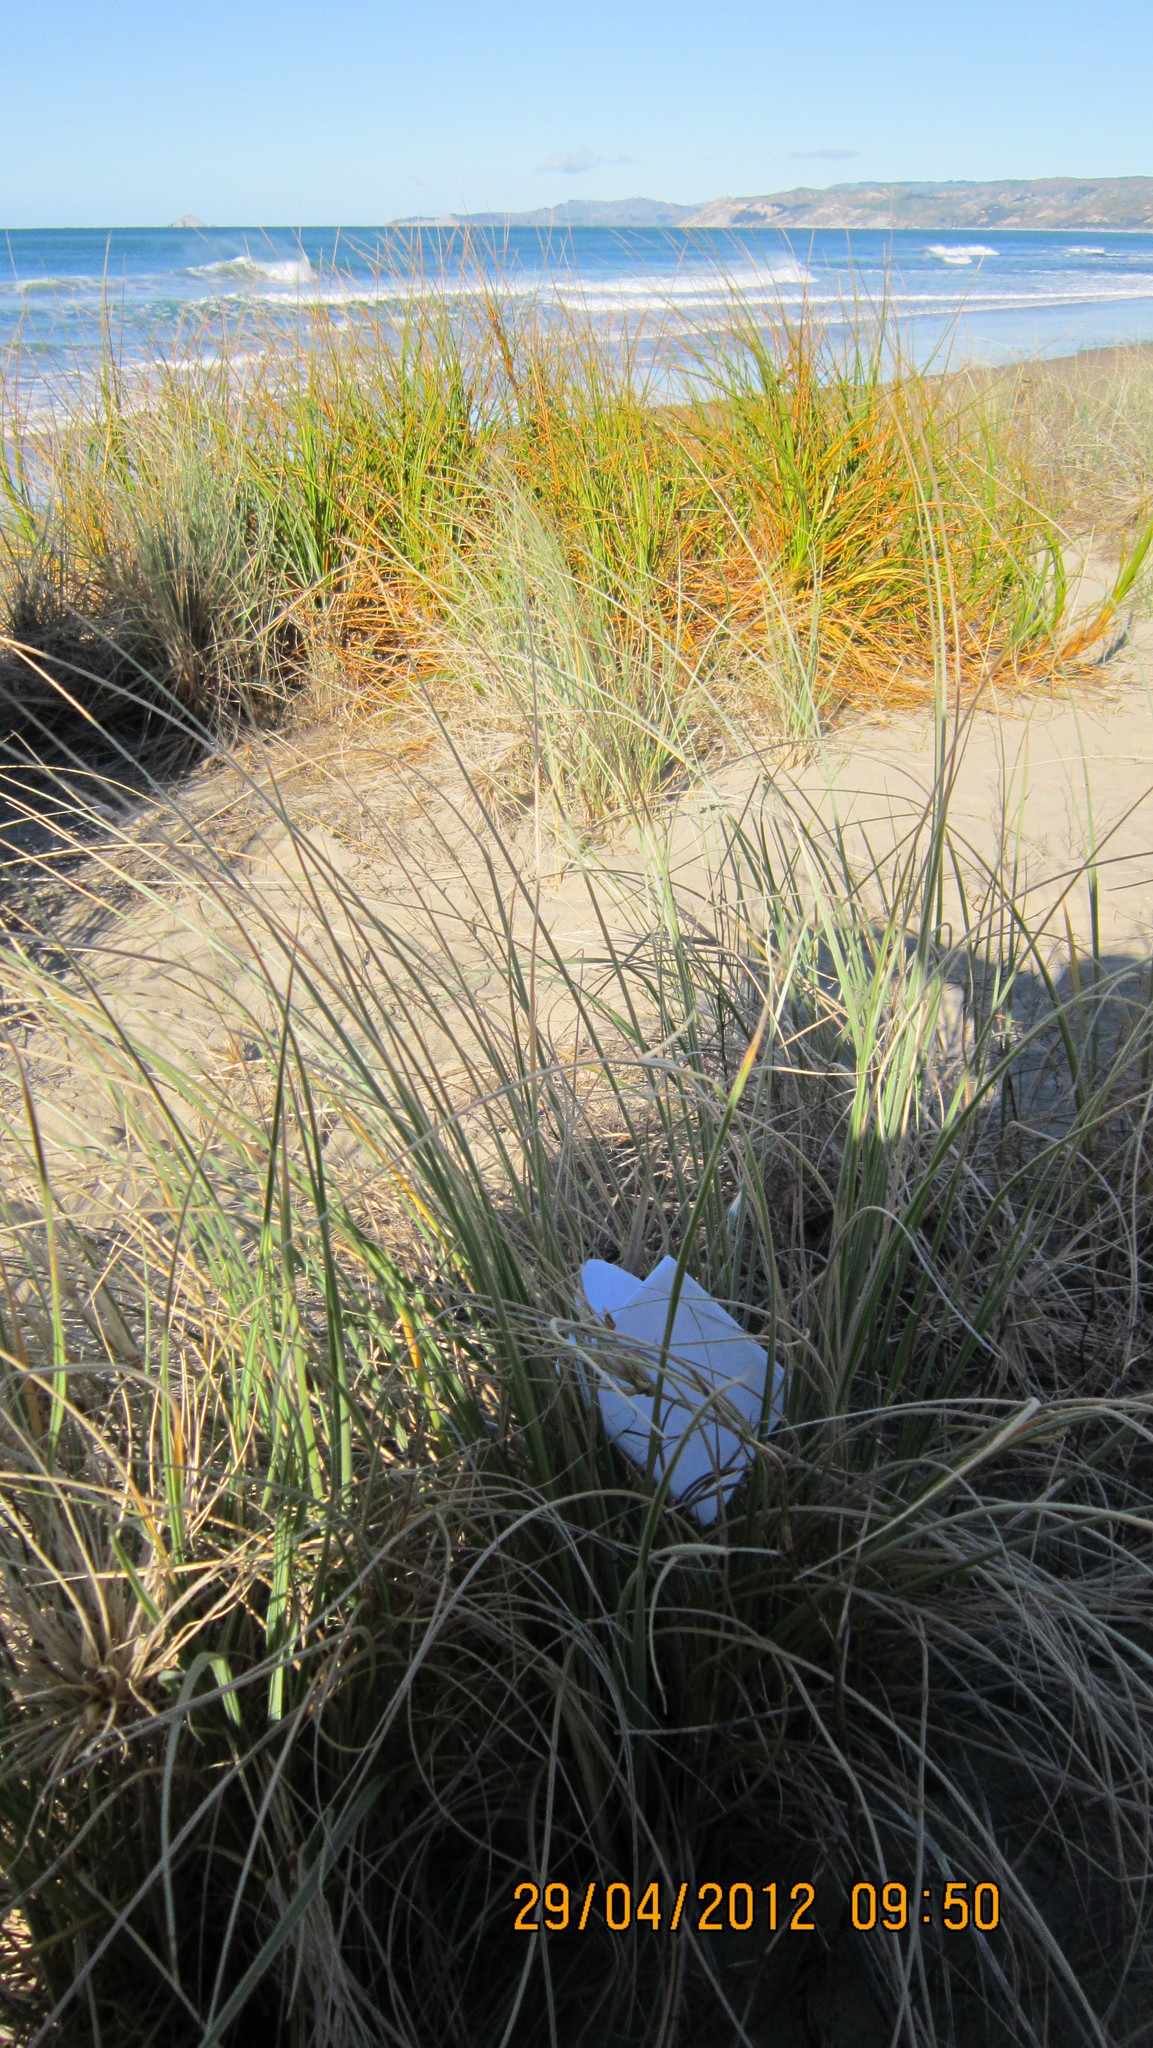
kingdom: Animalia
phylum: Arthropoda
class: Arachnida
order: Araneae
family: Theridiidae
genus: Latrodectus
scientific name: Latrodectus katipo
